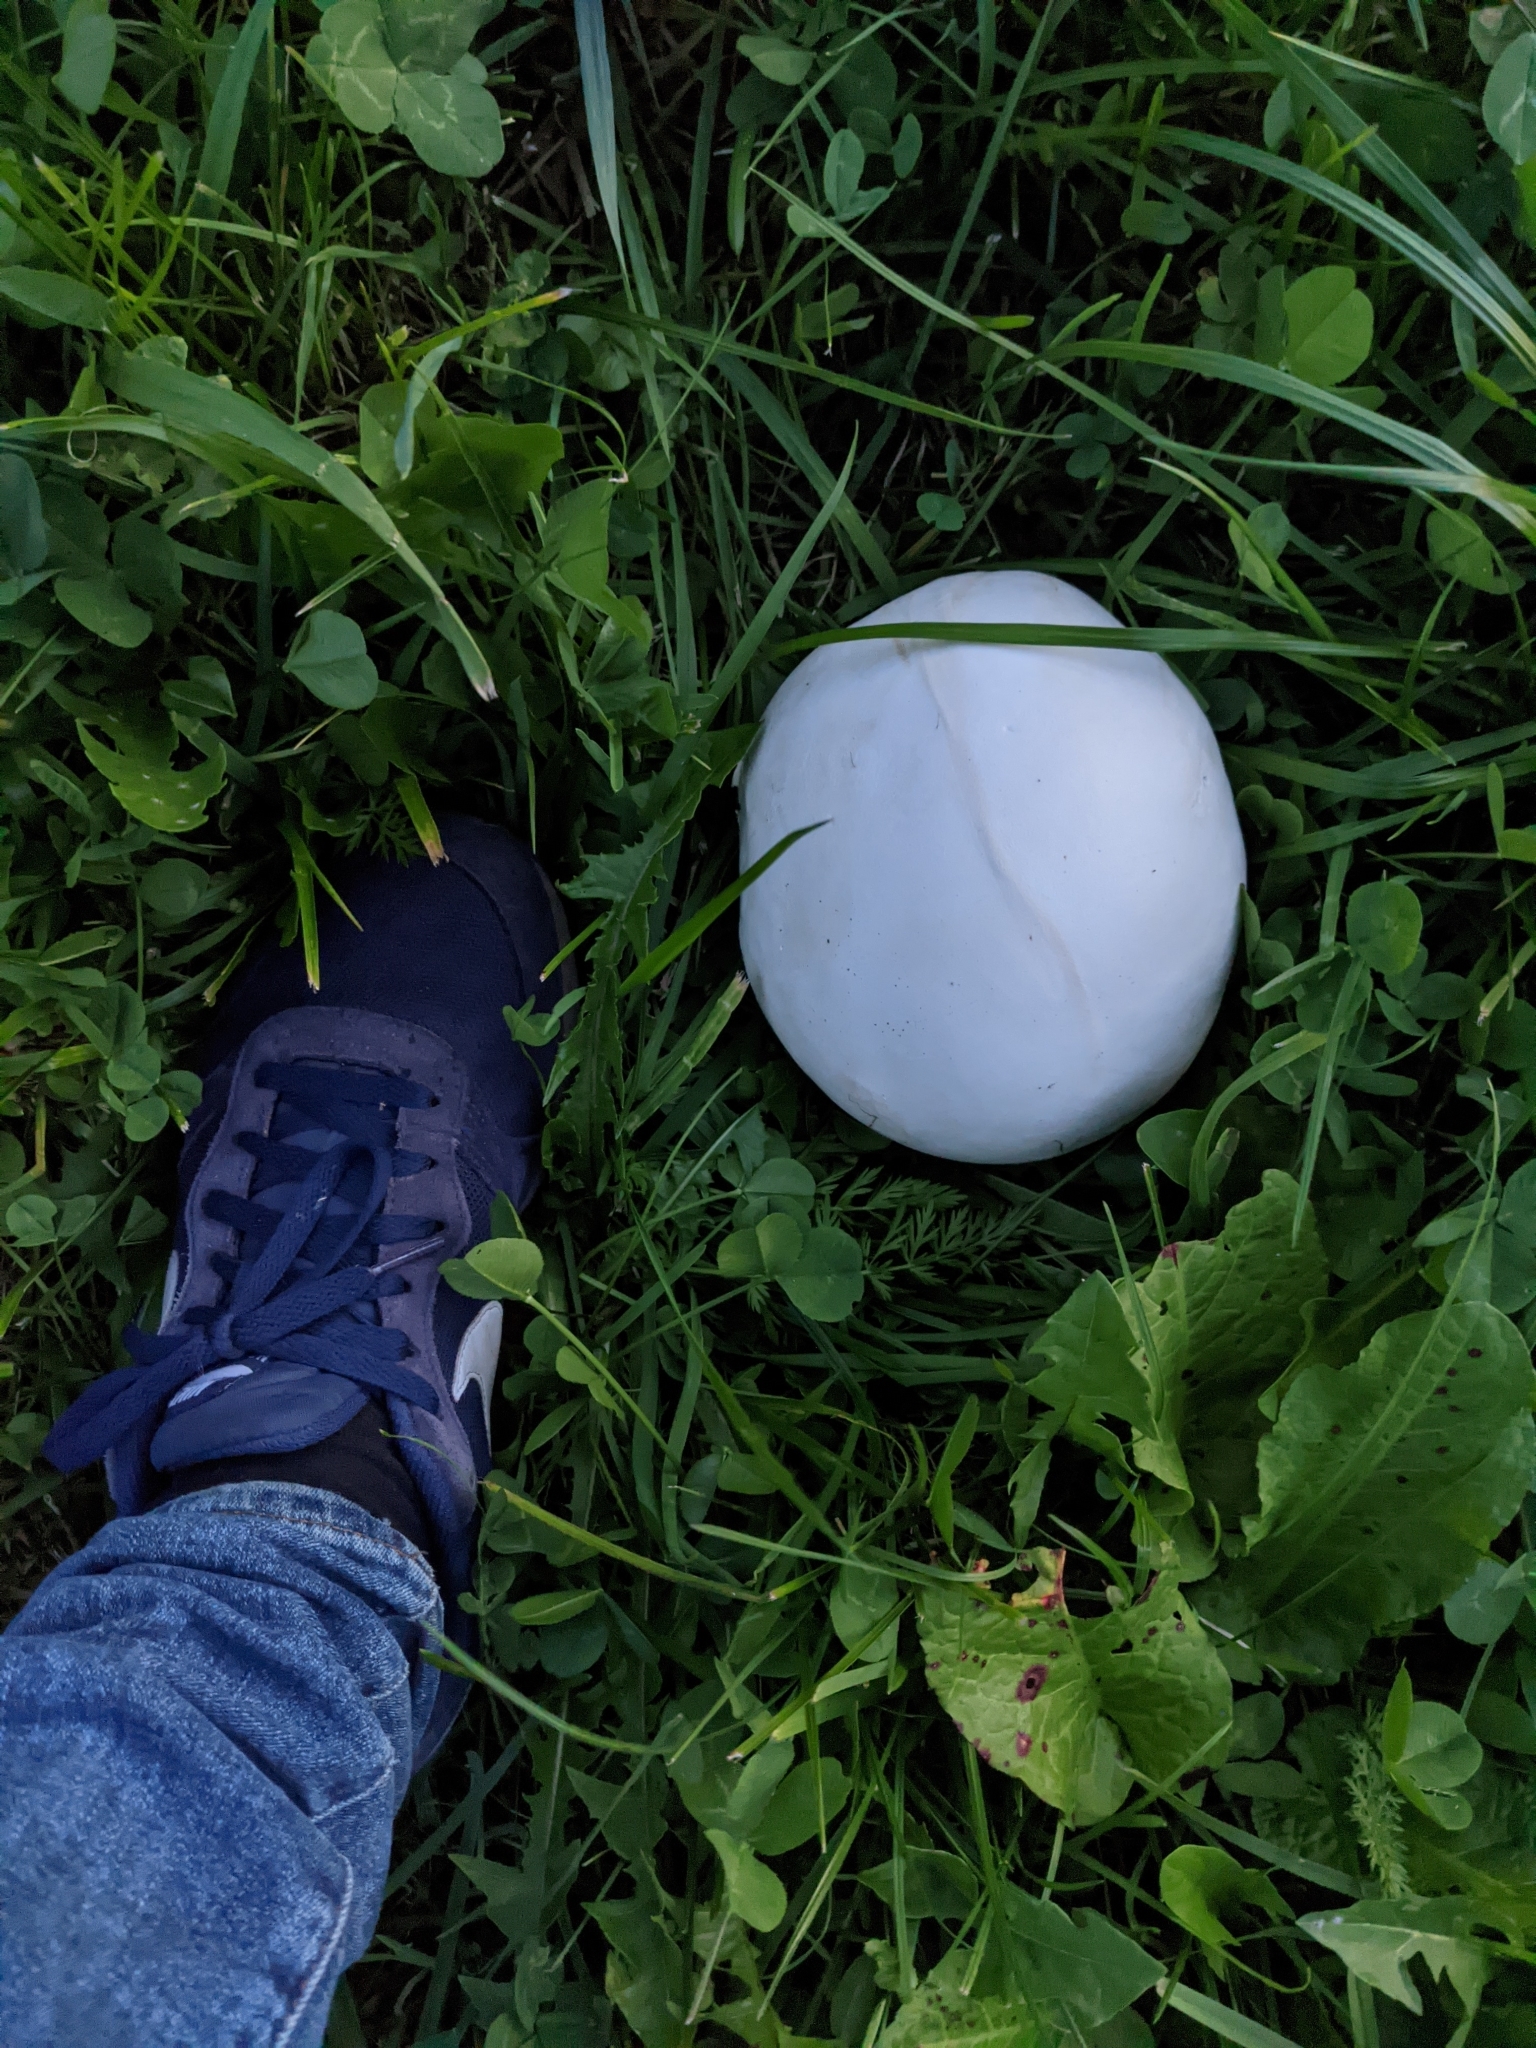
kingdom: Fungi
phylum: Basidiomycota
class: Agaricomycetes
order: Agaricales
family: Lycoperdaceae
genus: Calvatia
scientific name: Calvatia gigantea
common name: Giant puffball
